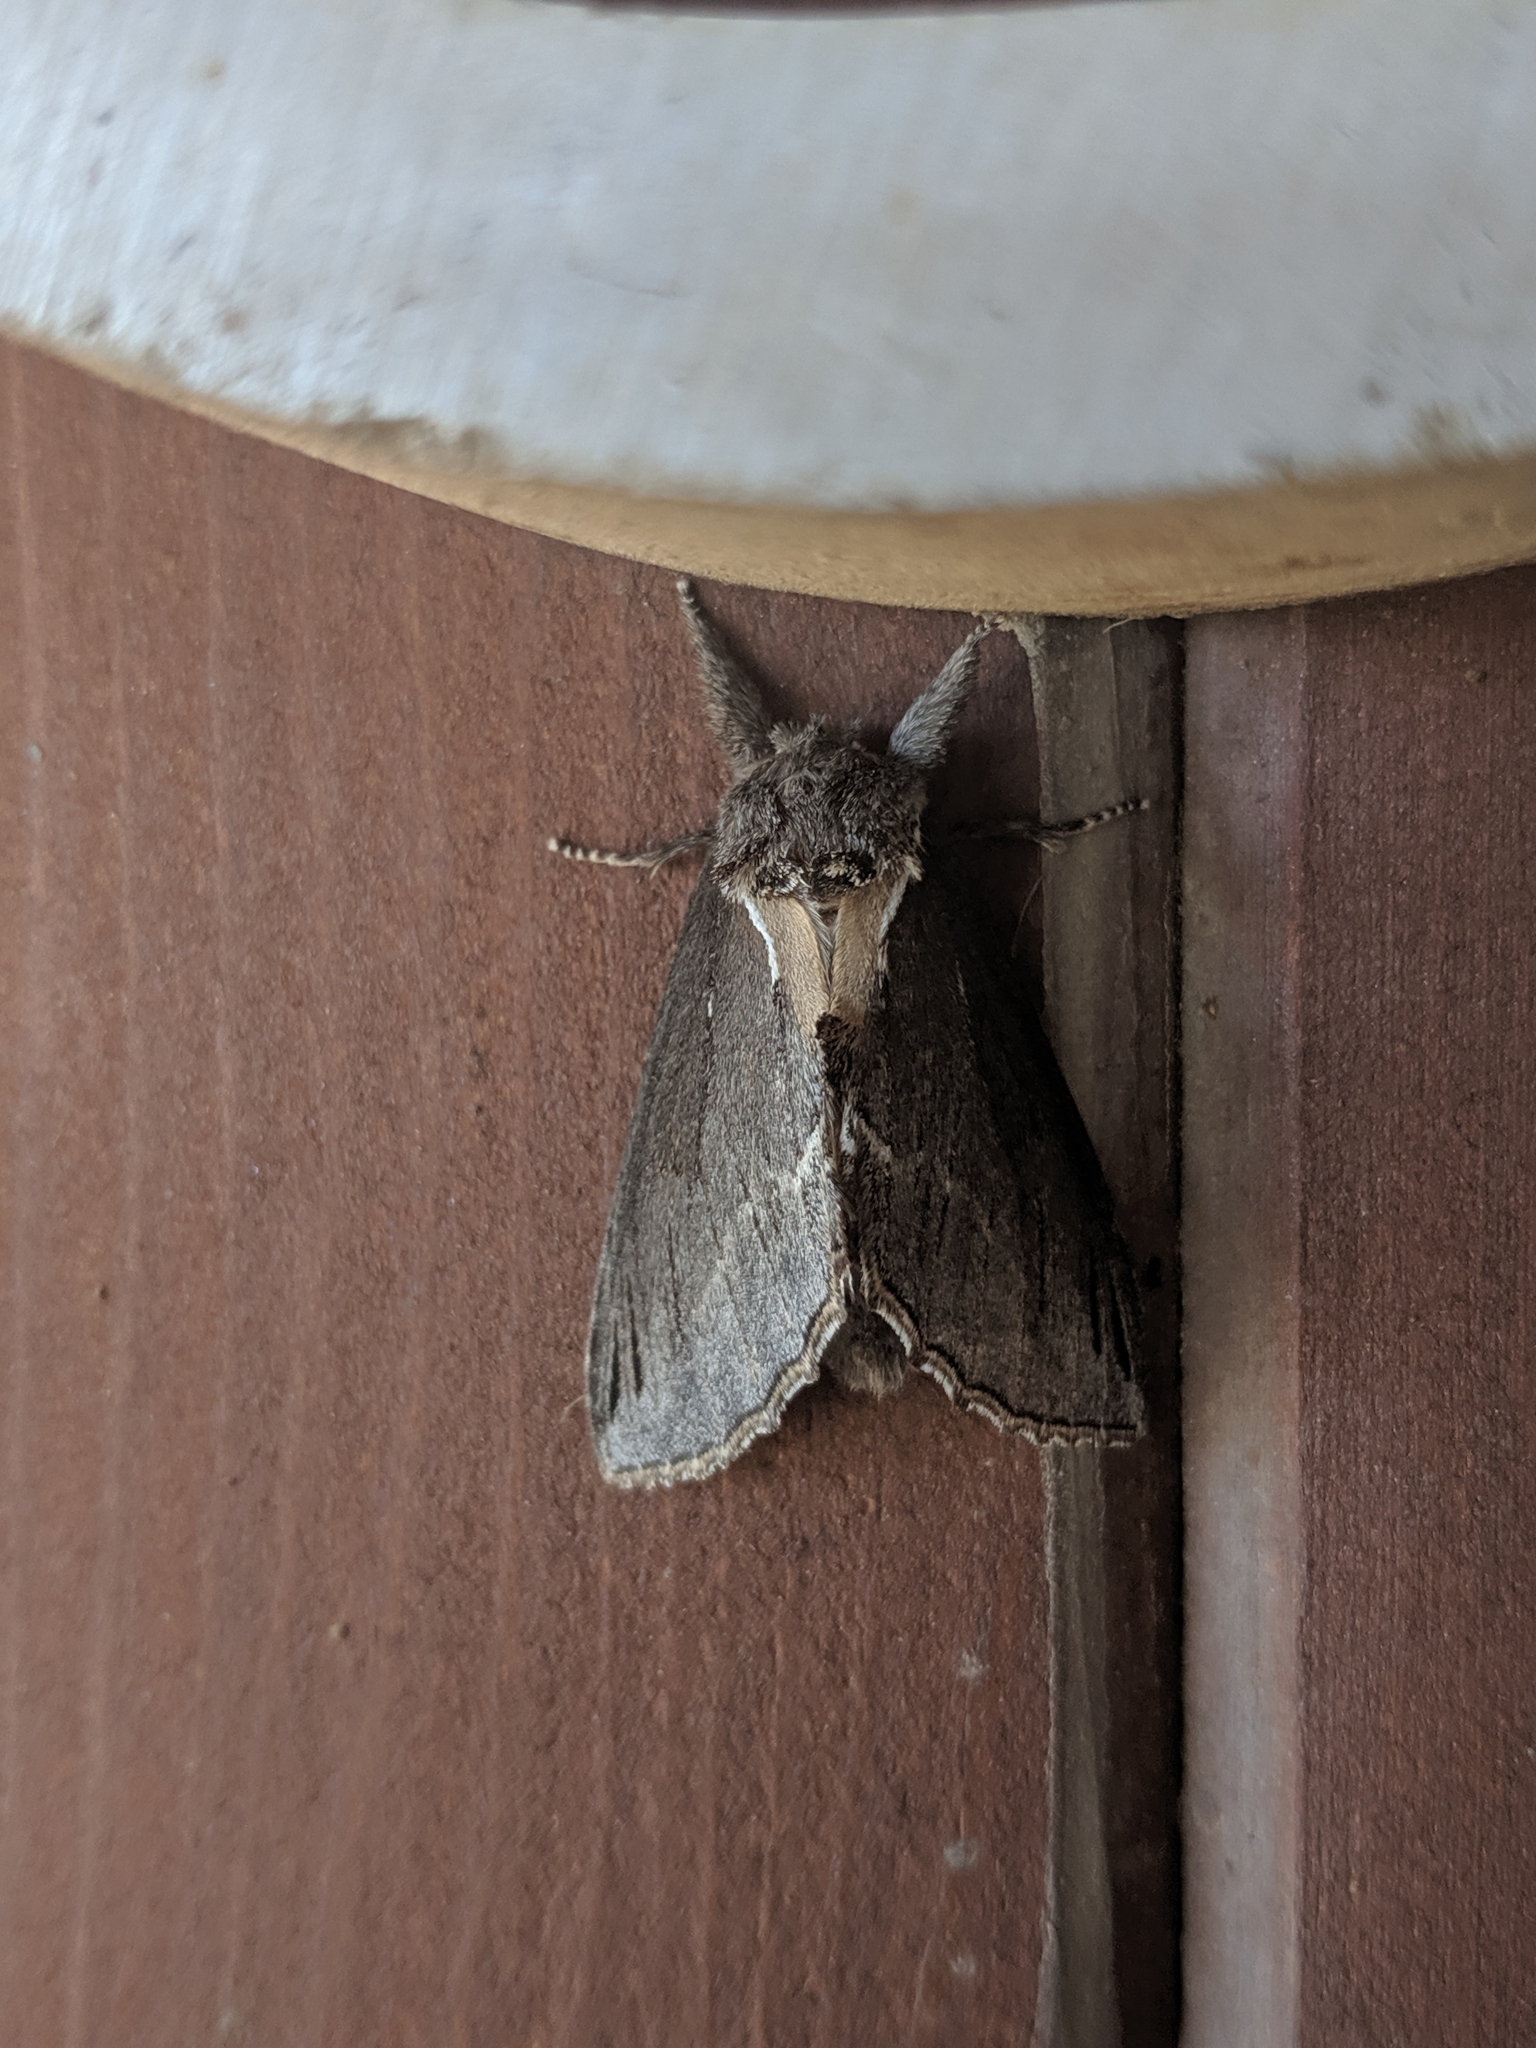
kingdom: Animalia
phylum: Arthropoda
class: Insecta
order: Lepidoptera
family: Notodontidae
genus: Pheosidea
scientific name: Pheosidea elegans
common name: Elegant prominent
